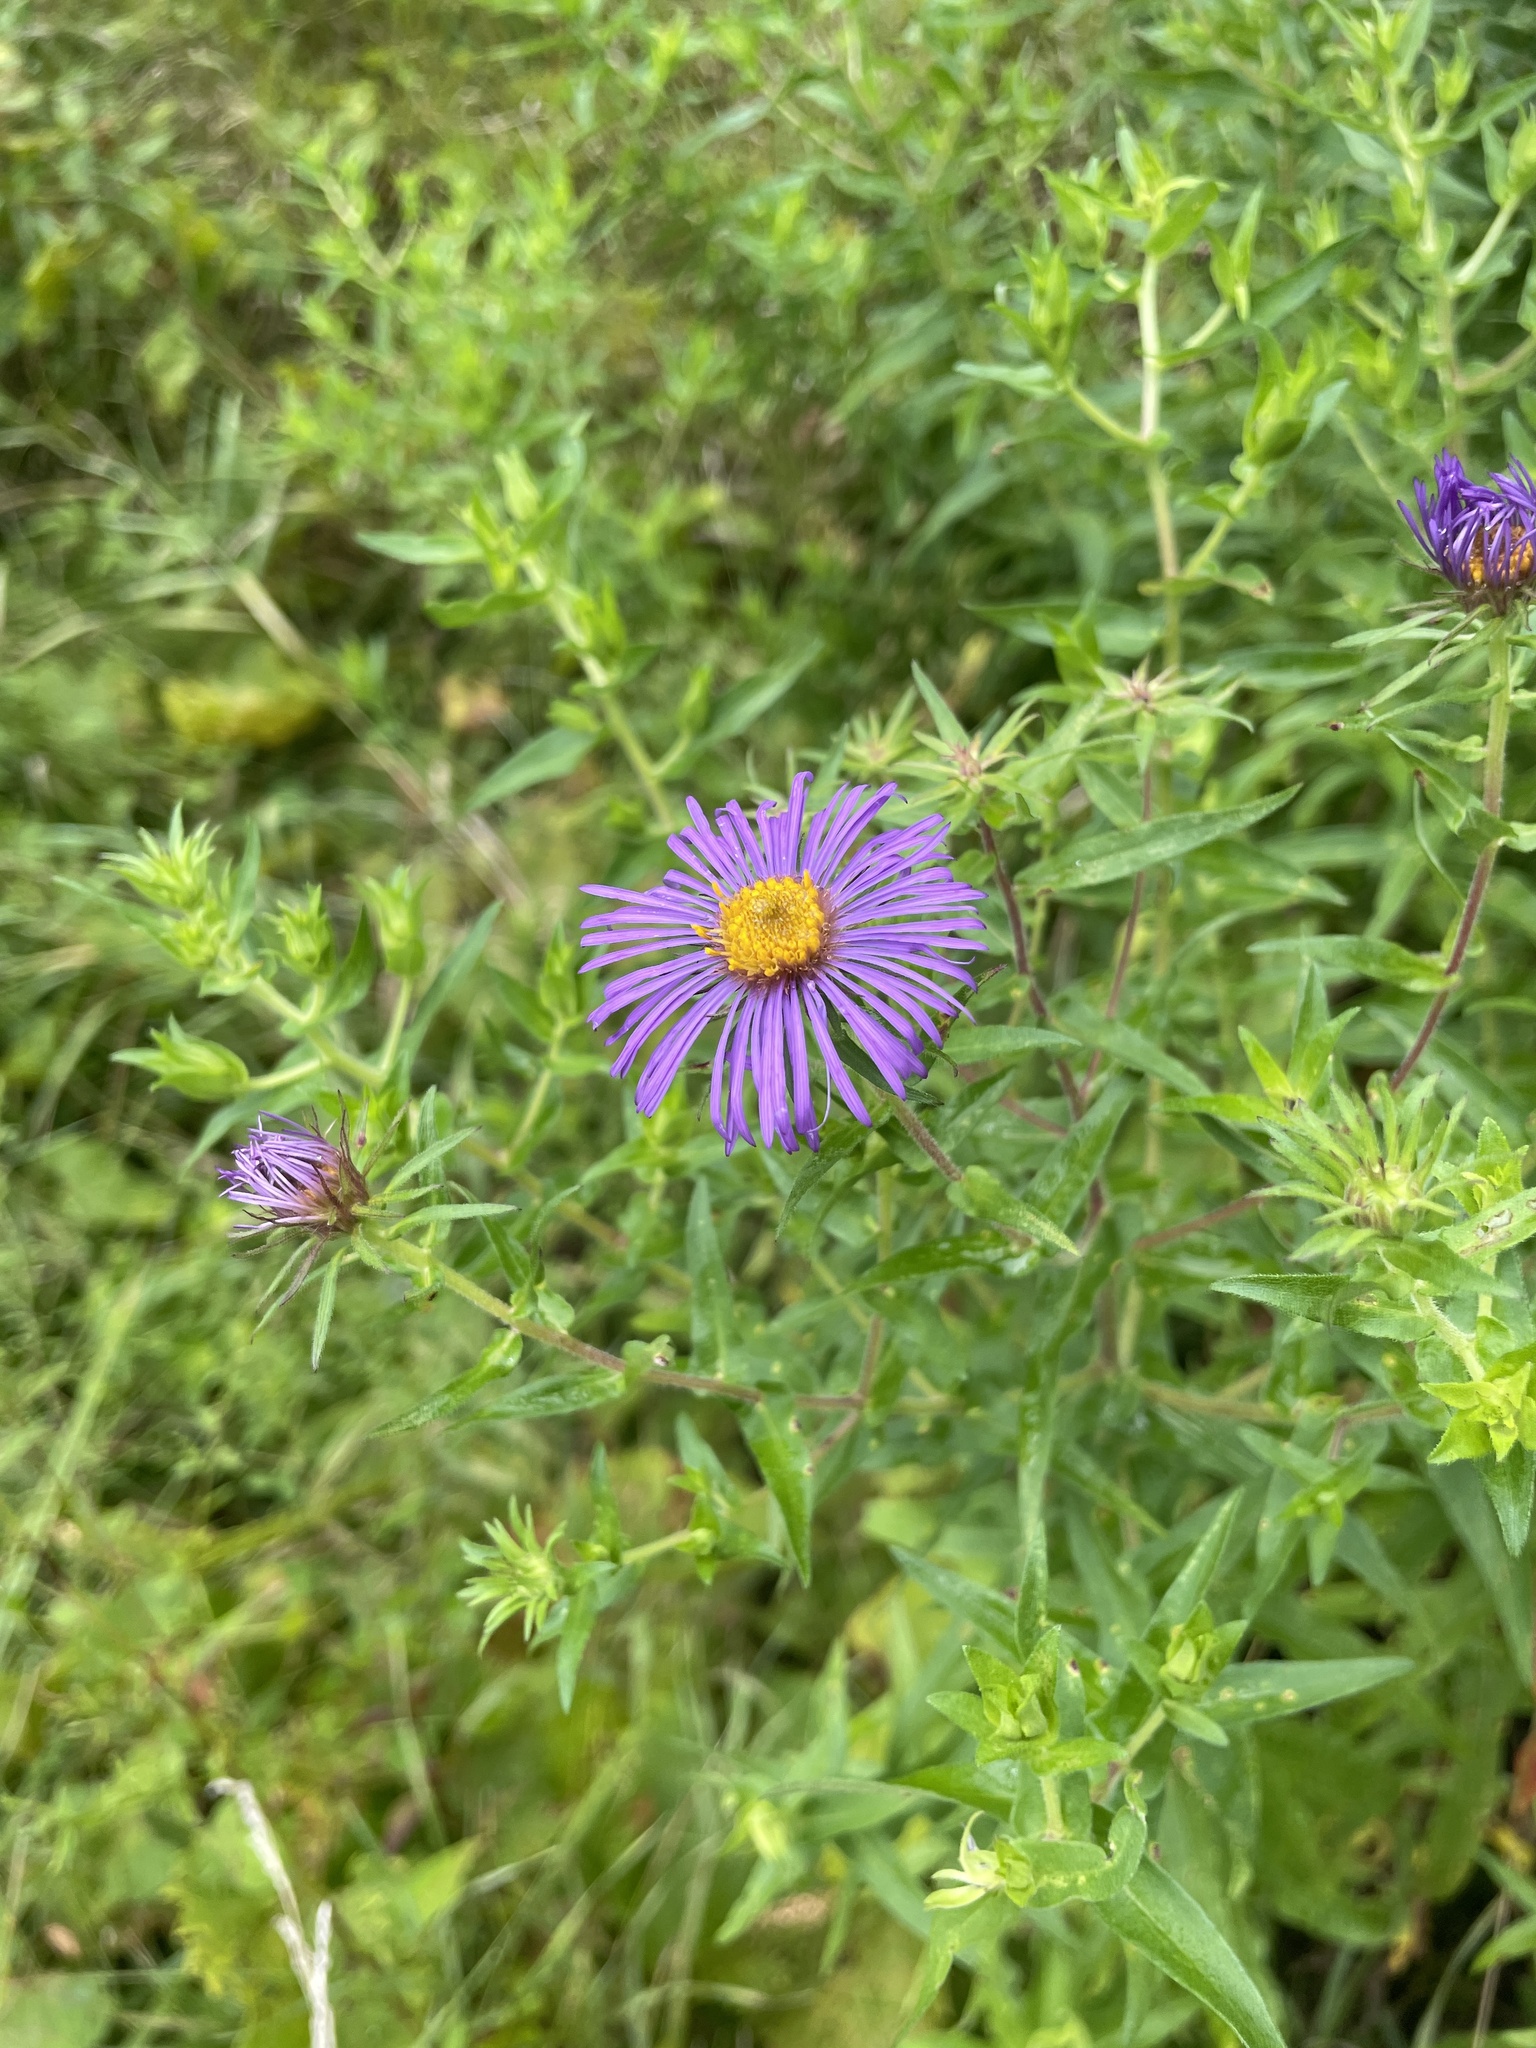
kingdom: Plantae
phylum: Tracheophyta
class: Magnoliopsida
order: Asterales
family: Asteraceae
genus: Symphyotrichum
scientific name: Symphyotrichum novae-angliae
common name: Michaelmas daisy
